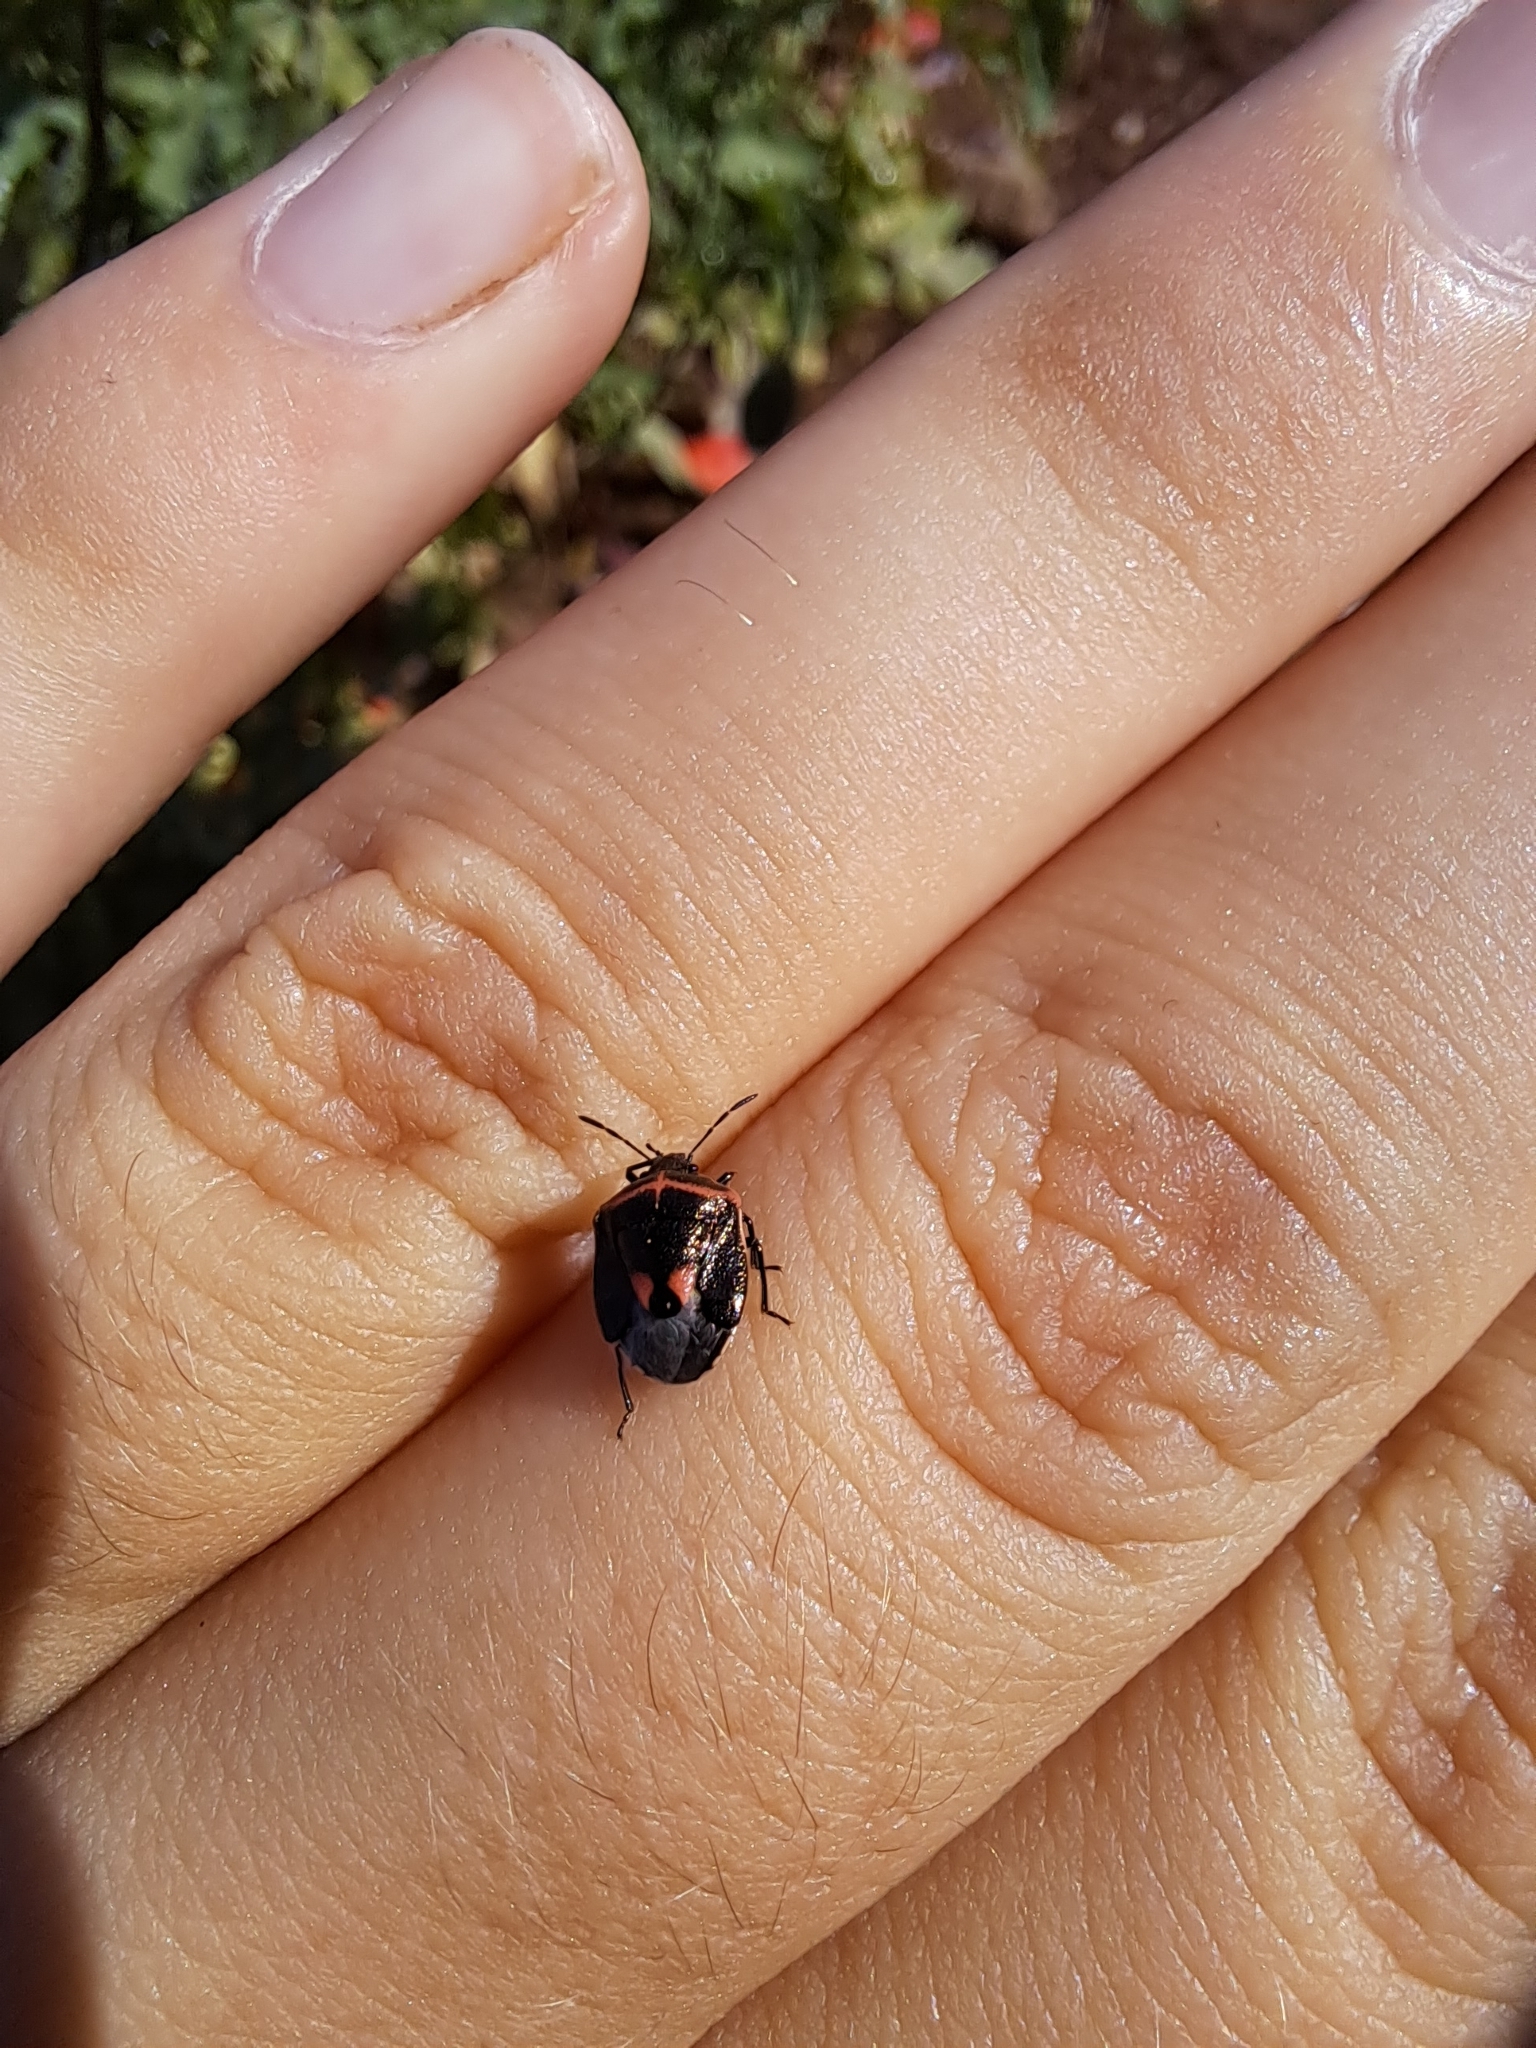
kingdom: Animalia
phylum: Arthropoda
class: Insecta
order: Hemiptera
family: Pentatomidae
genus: Cosmopepla
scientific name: Cosmopepla lintneriana
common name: Twice-stabbed stink bug
